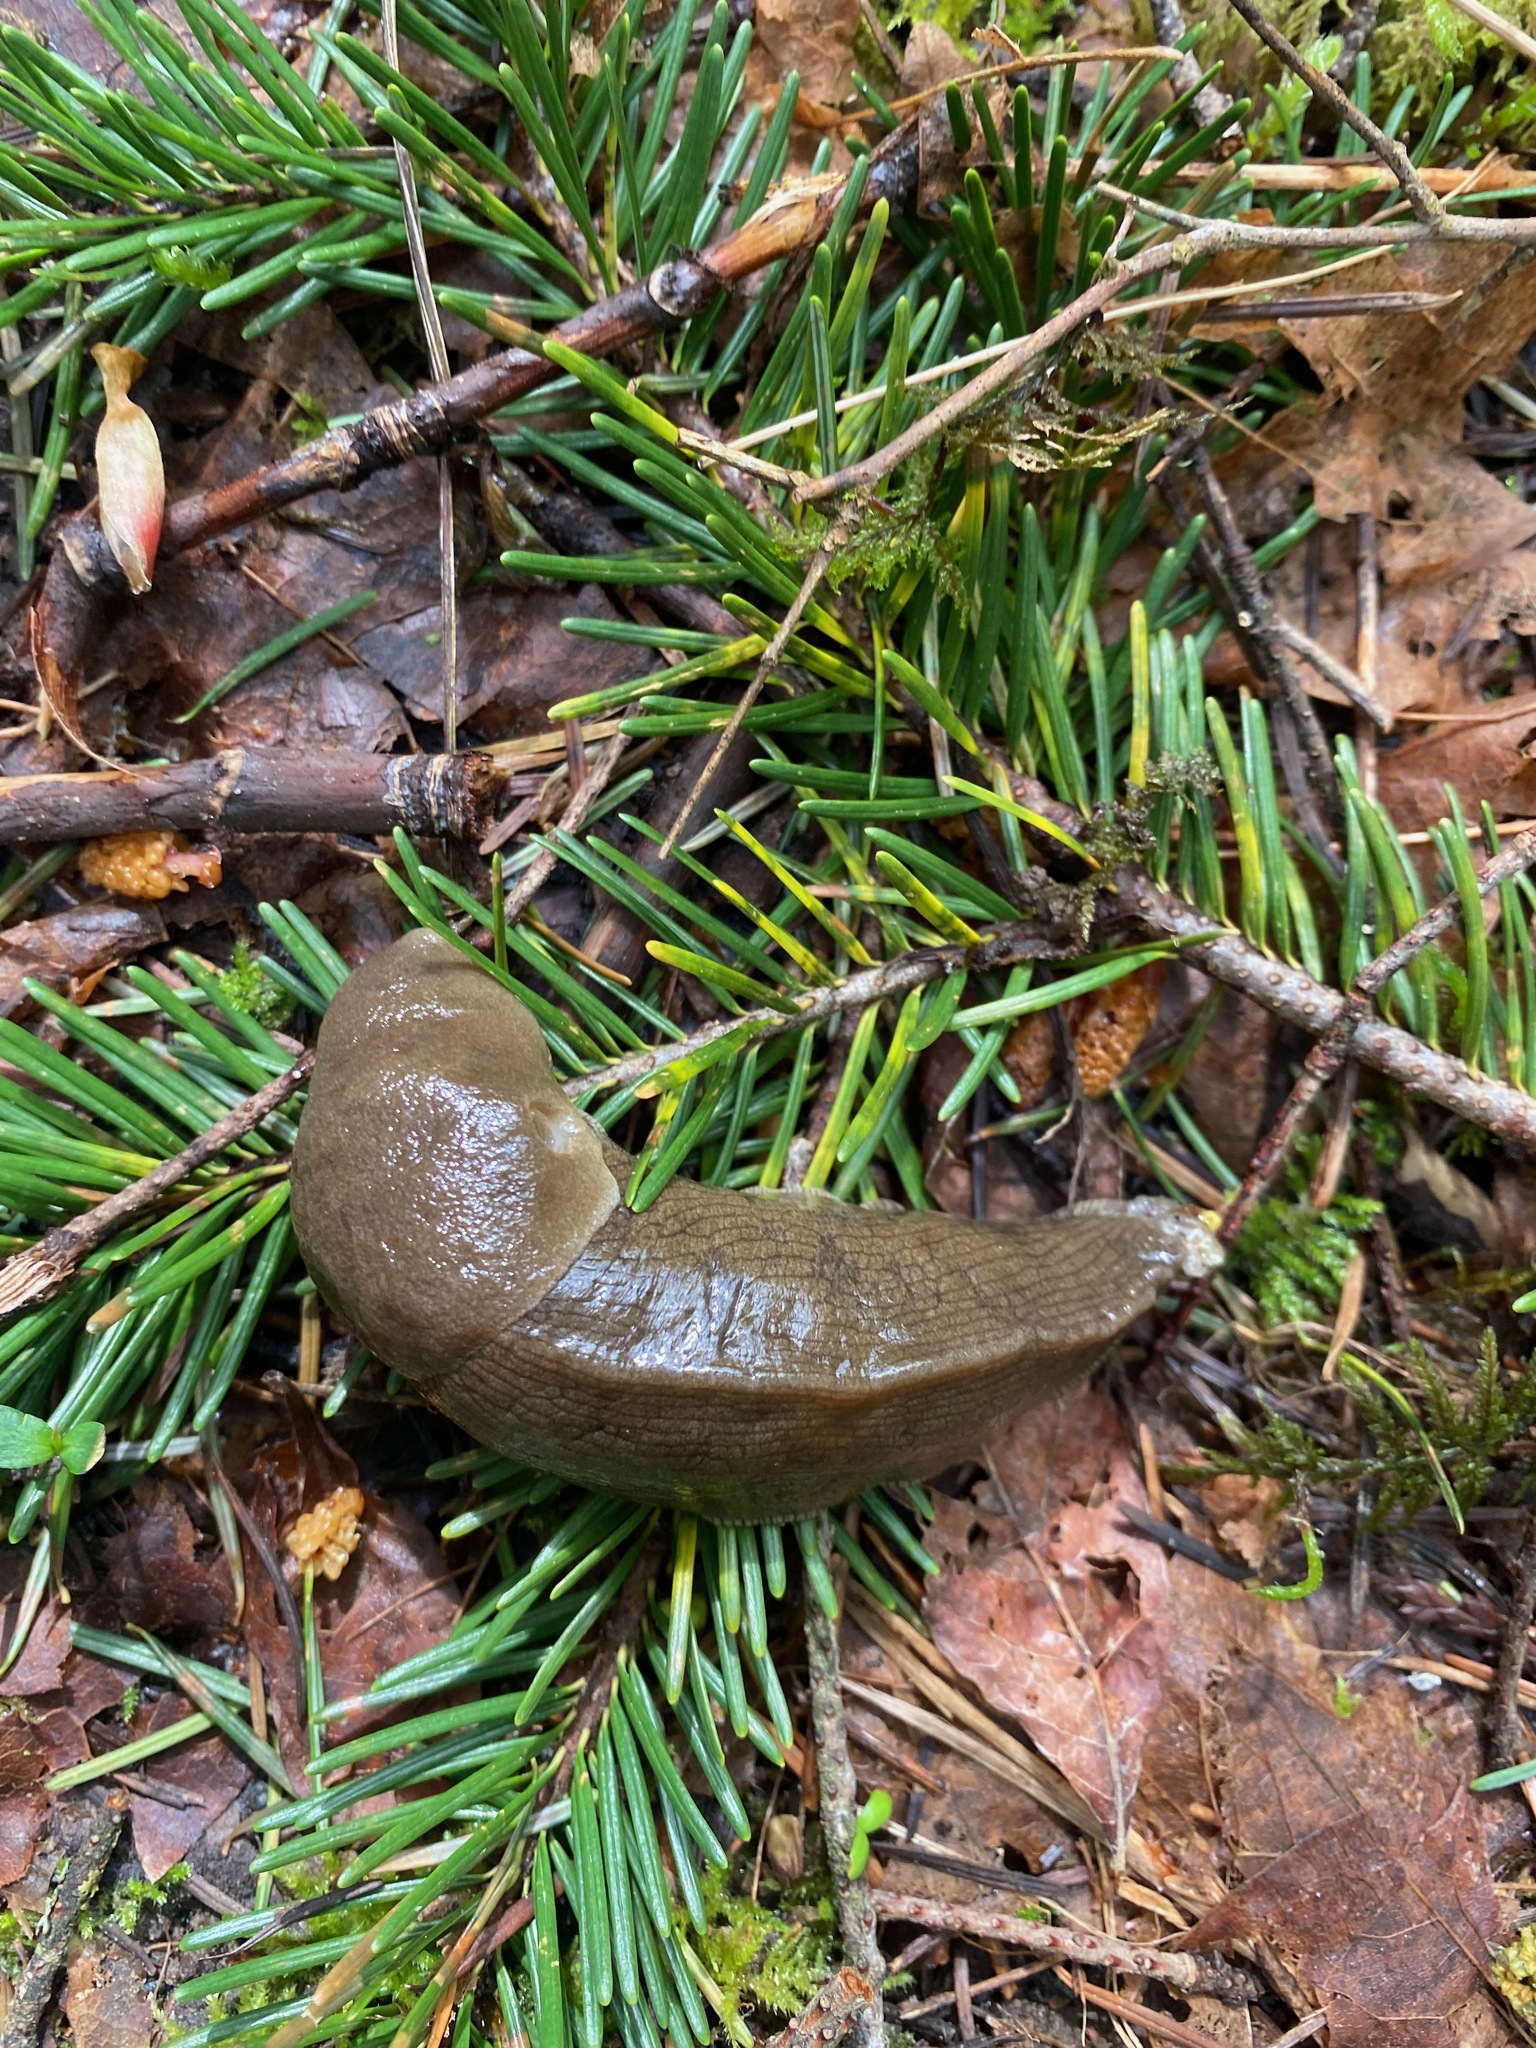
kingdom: Animalia
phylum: Mollusca
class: Gastropoda
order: Stylommatophora
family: Ariolimacidae
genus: Ariolimax
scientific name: Ariolimax columbianus
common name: Pacific banana slug
